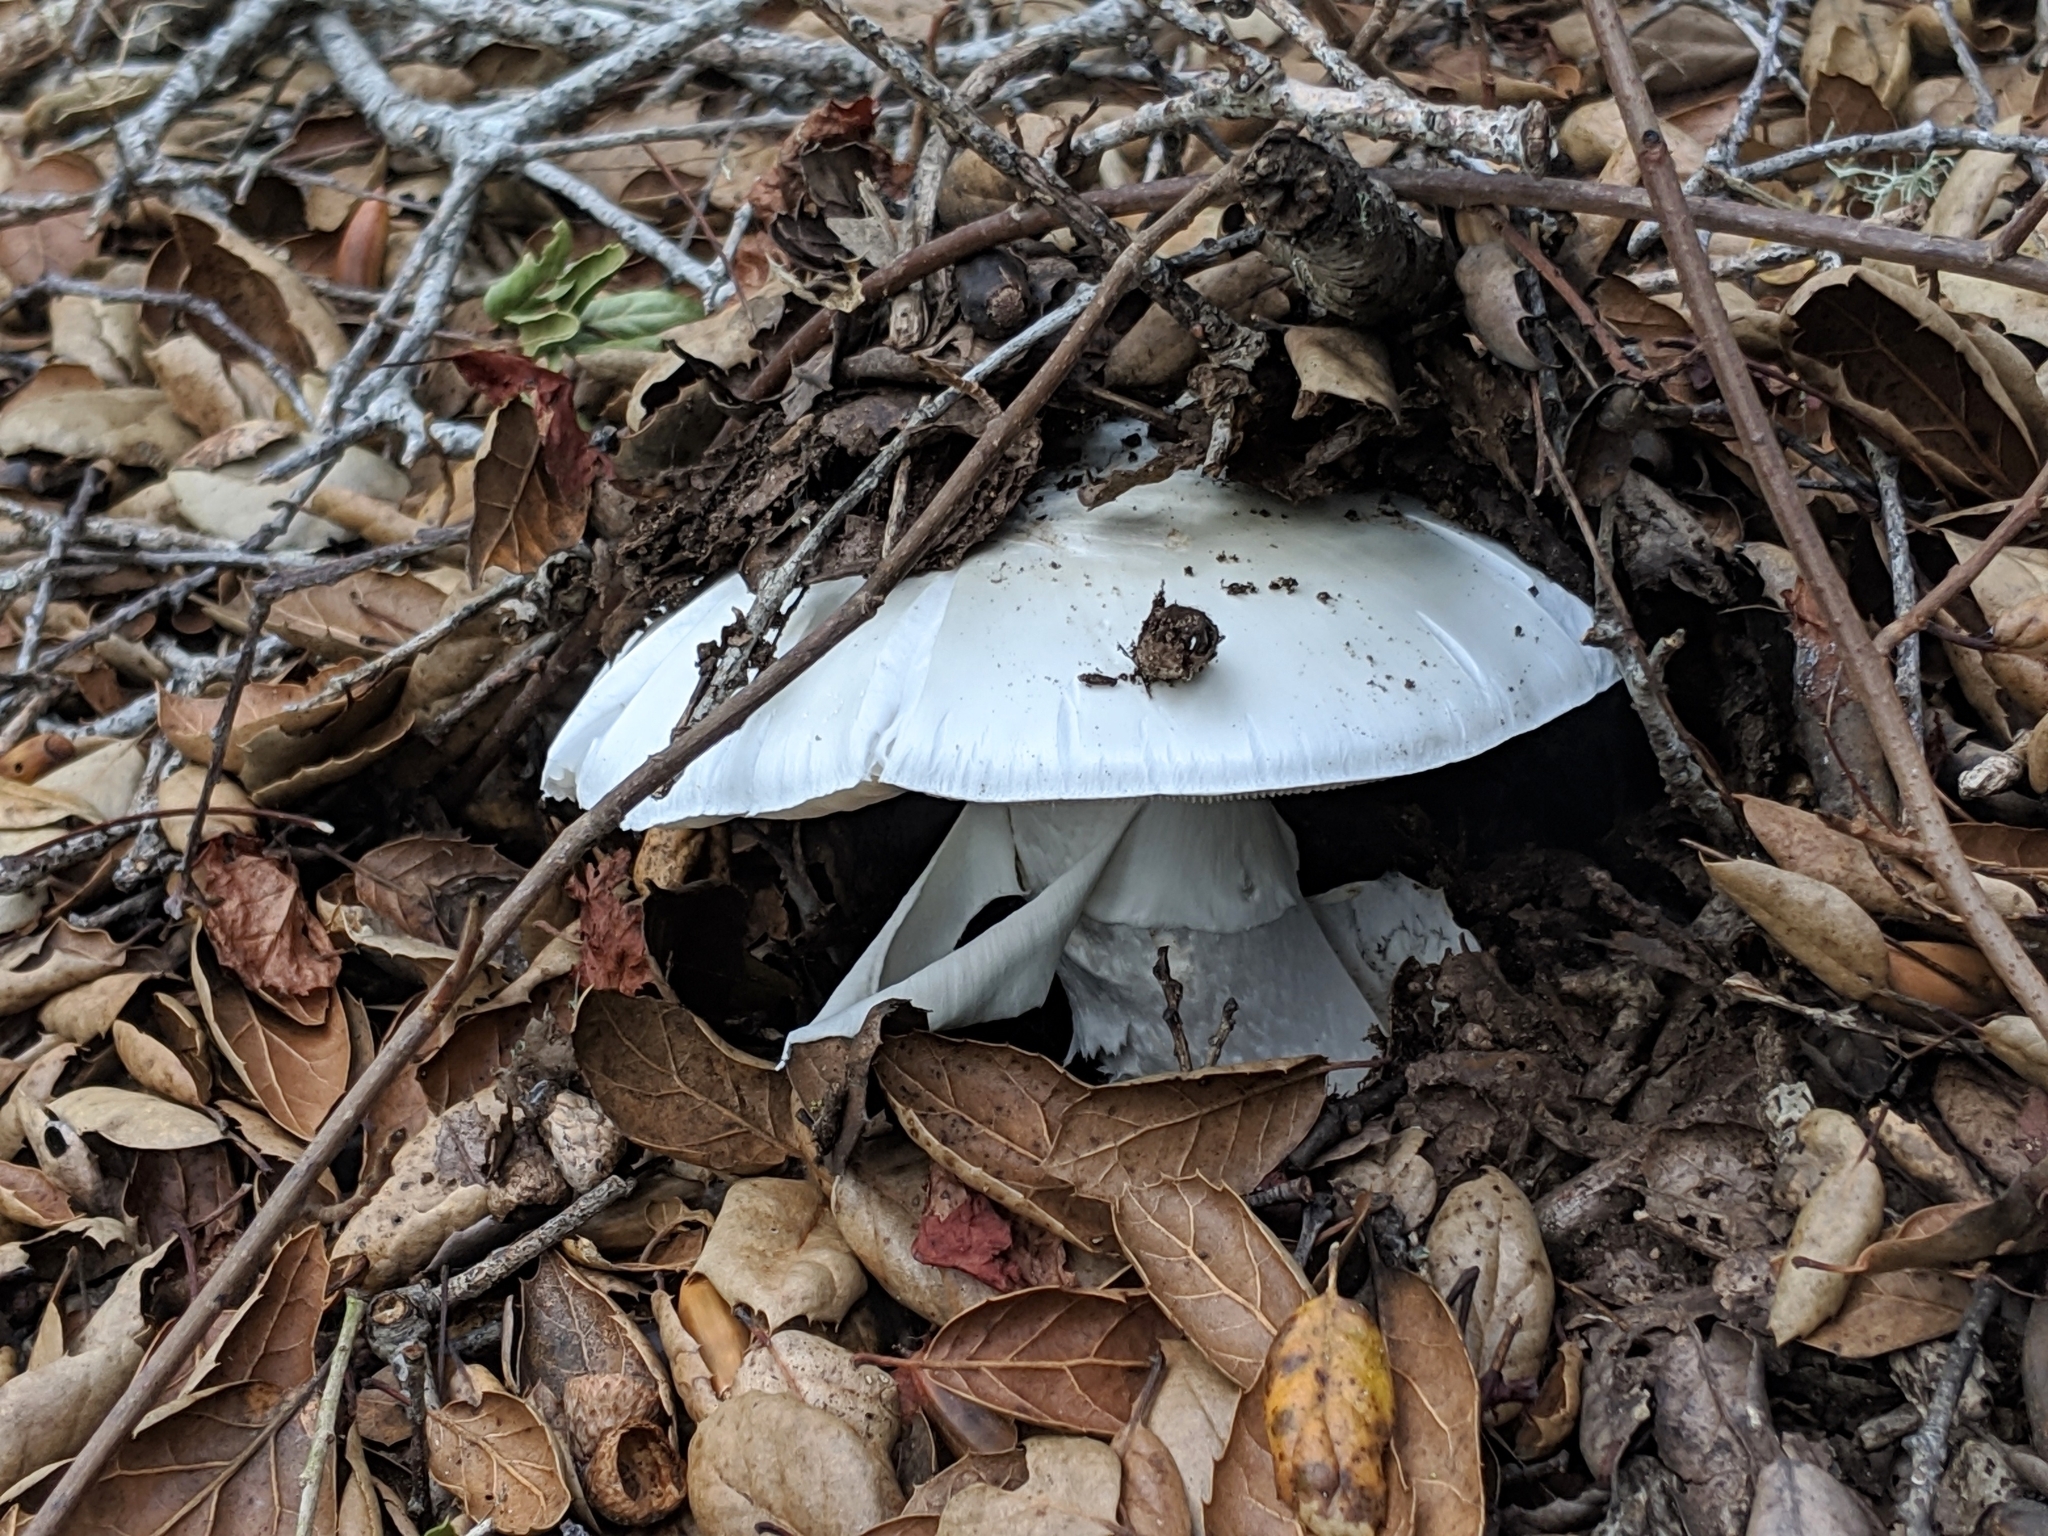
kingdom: Fungi
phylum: Basidiomycota
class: Agaricomycetes
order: Agaricales
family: Amanitaceae
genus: Amanita
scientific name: Amanita ocreata
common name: Western destroying angel
